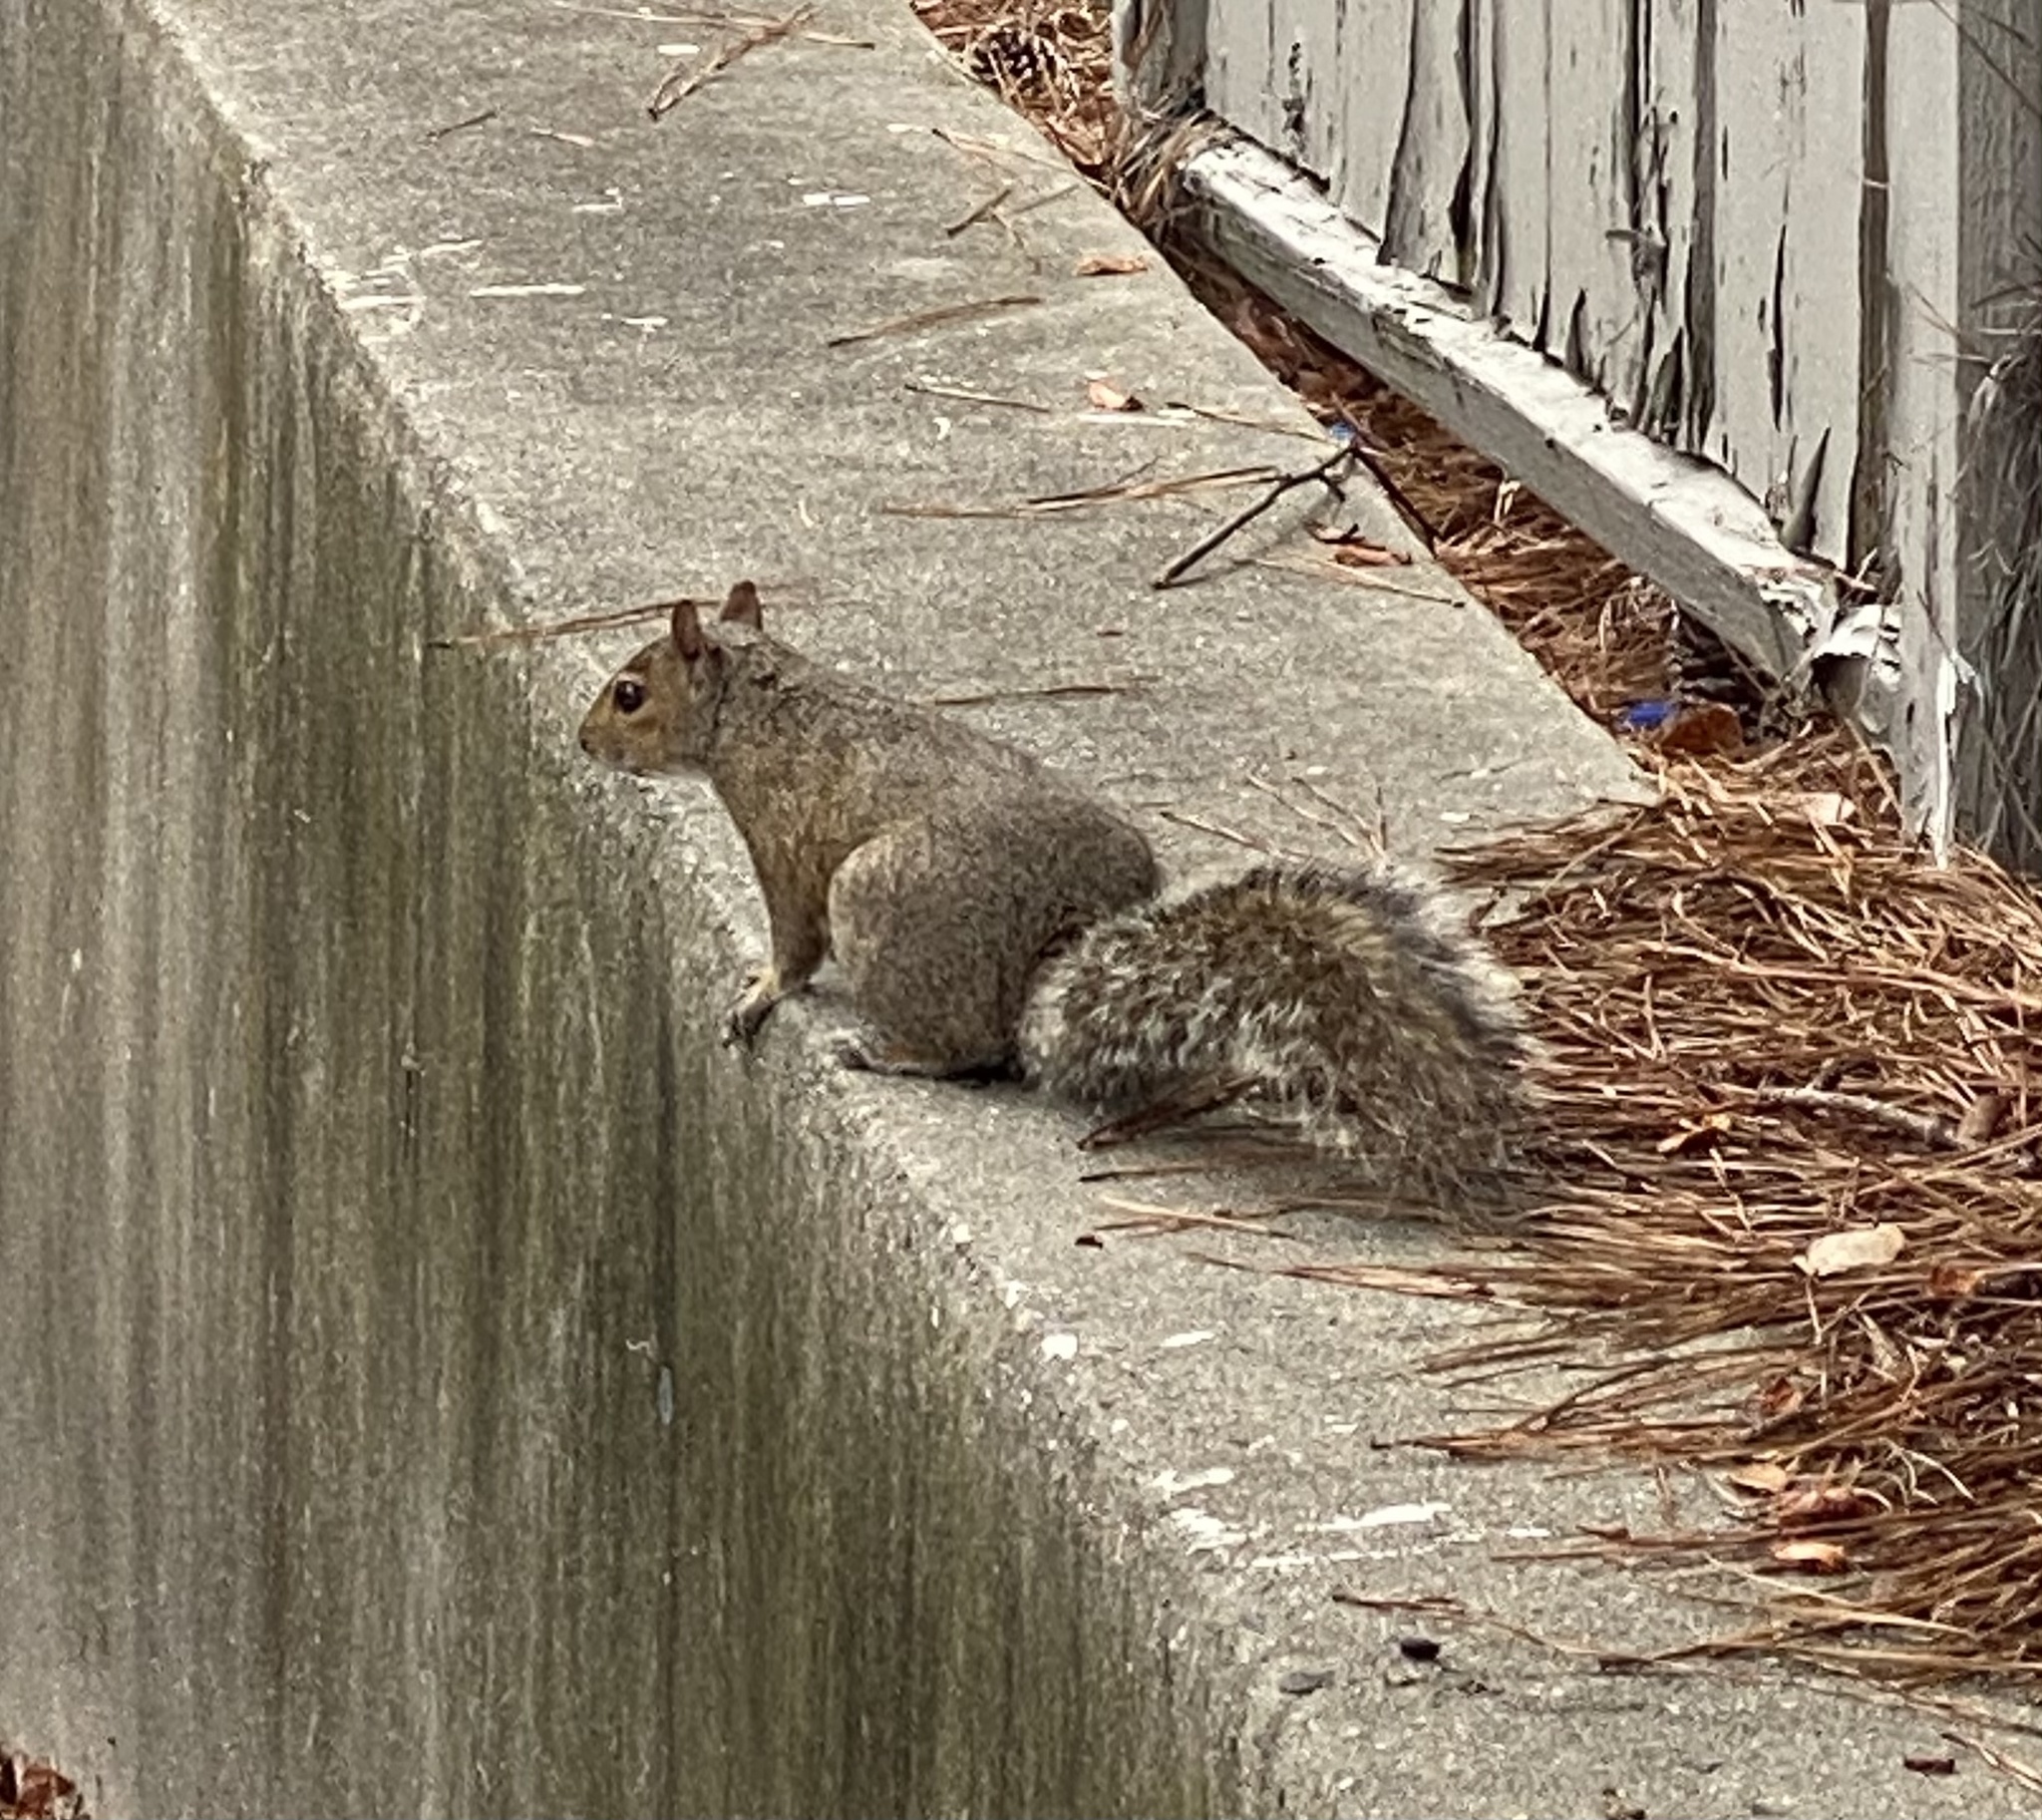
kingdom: Animalia
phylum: Chordata
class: Mammalia
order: Rodentia
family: Sciuridae
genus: Sciurus
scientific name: Sciurus carolinensis
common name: Eastern gray squirrel
